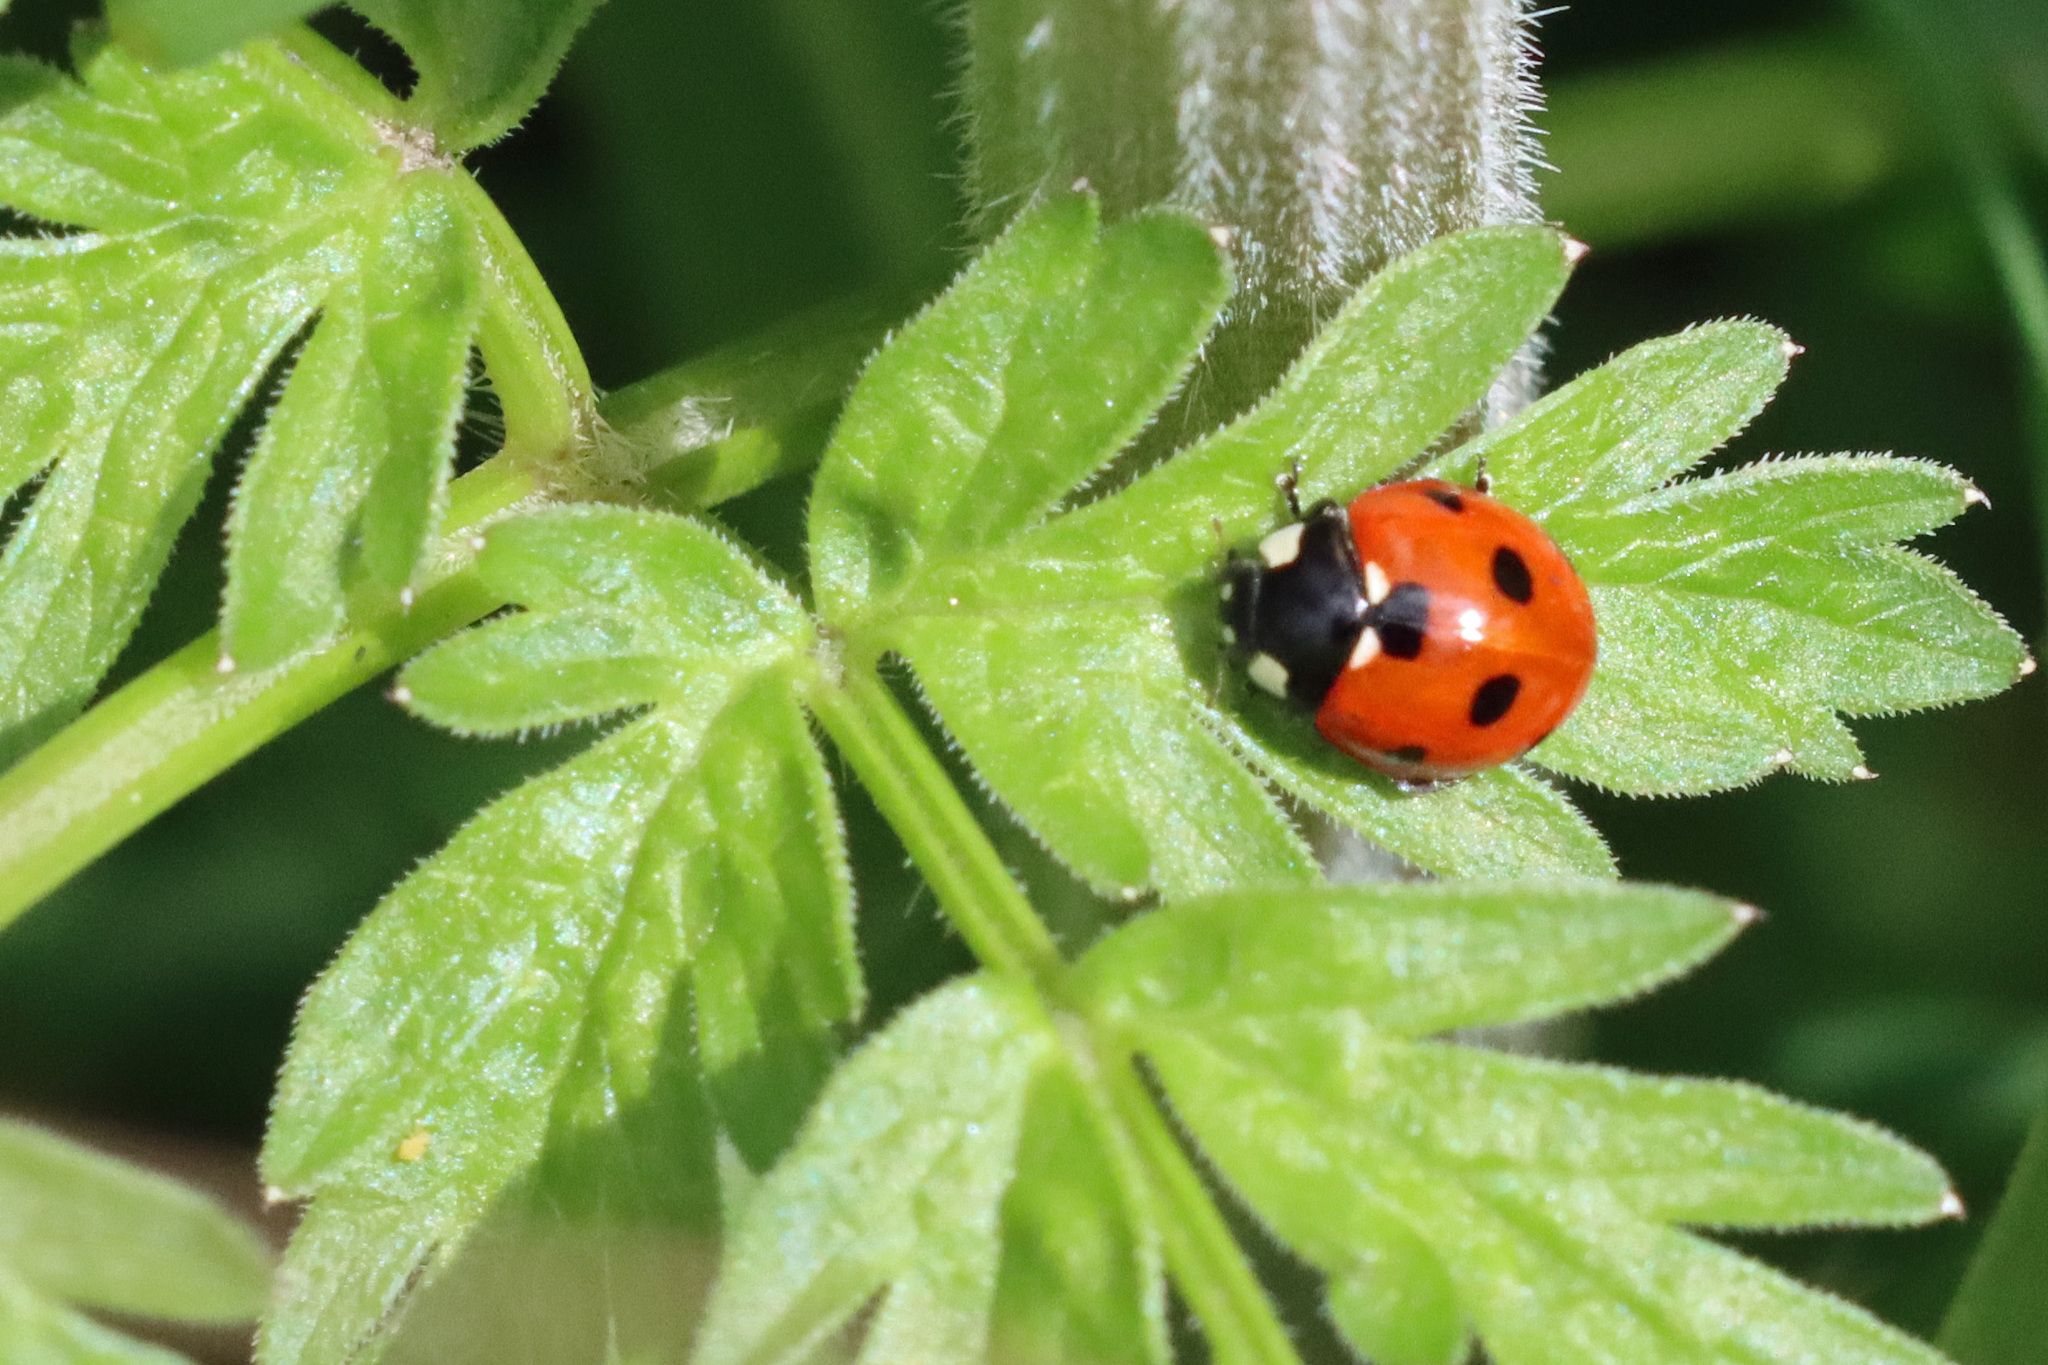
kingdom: Animalia
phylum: Arthropoda
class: Insecta
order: Coleoptera
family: Coccinellidae
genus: Coccinella
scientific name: Coccinella septempunctata
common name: Sevenspotted lady beetle
